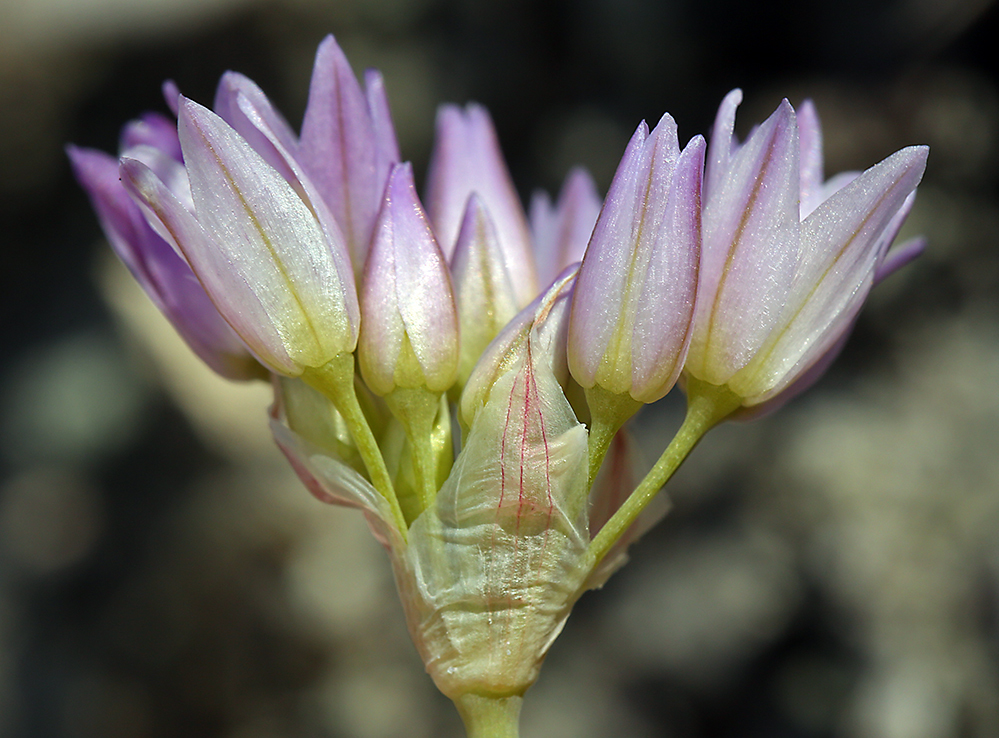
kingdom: Plantae
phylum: Tracheophyta
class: Liliopsida
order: Asparagales
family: Amaryllidaceae
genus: Allium
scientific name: Allium fimbriatum
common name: Fringed onion
